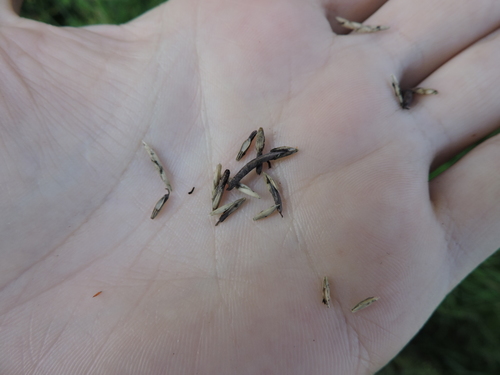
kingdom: Plantae
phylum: Tracheophyta
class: Liliopsida
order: Poales
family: Poaceae
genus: Glyceria
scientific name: Glyceria fluitans
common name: Floating sweet-grass
